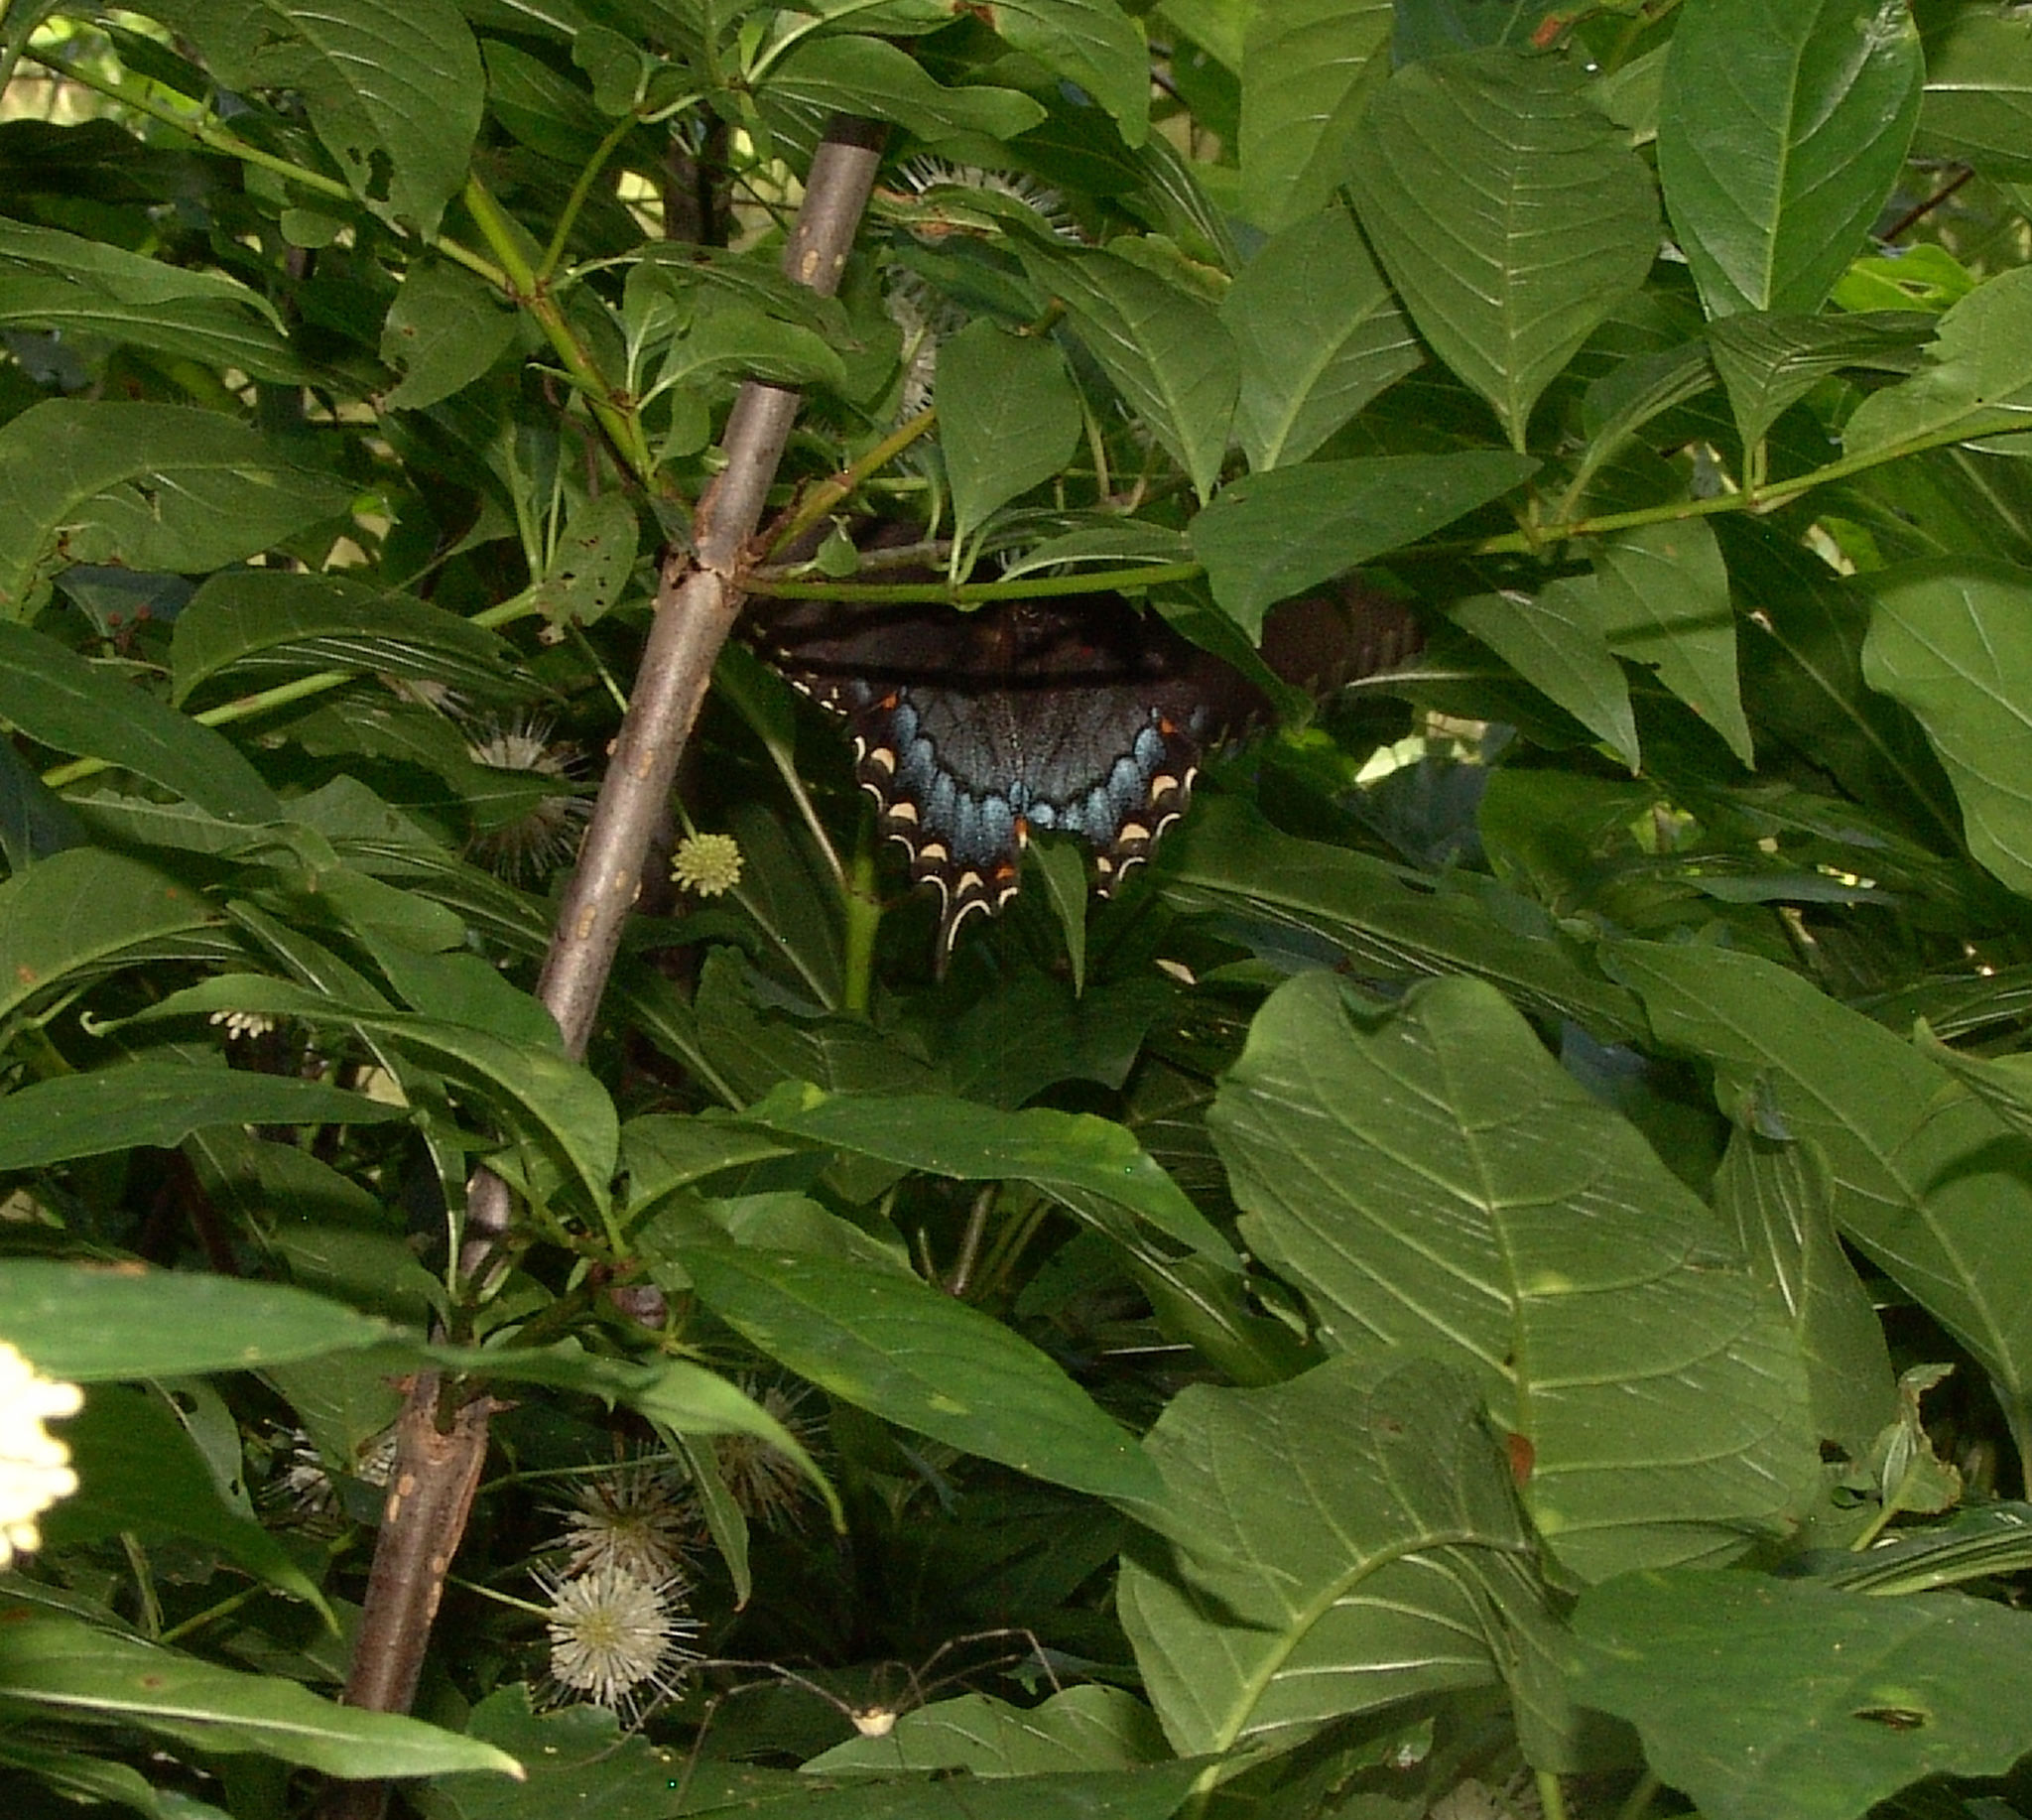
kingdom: Animalia
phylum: Arthropoda
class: Insecta
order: Lepidoptera
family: Papilionidae
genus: Papilio
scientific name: Papilio glaucus
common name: Tiger swallowtail
